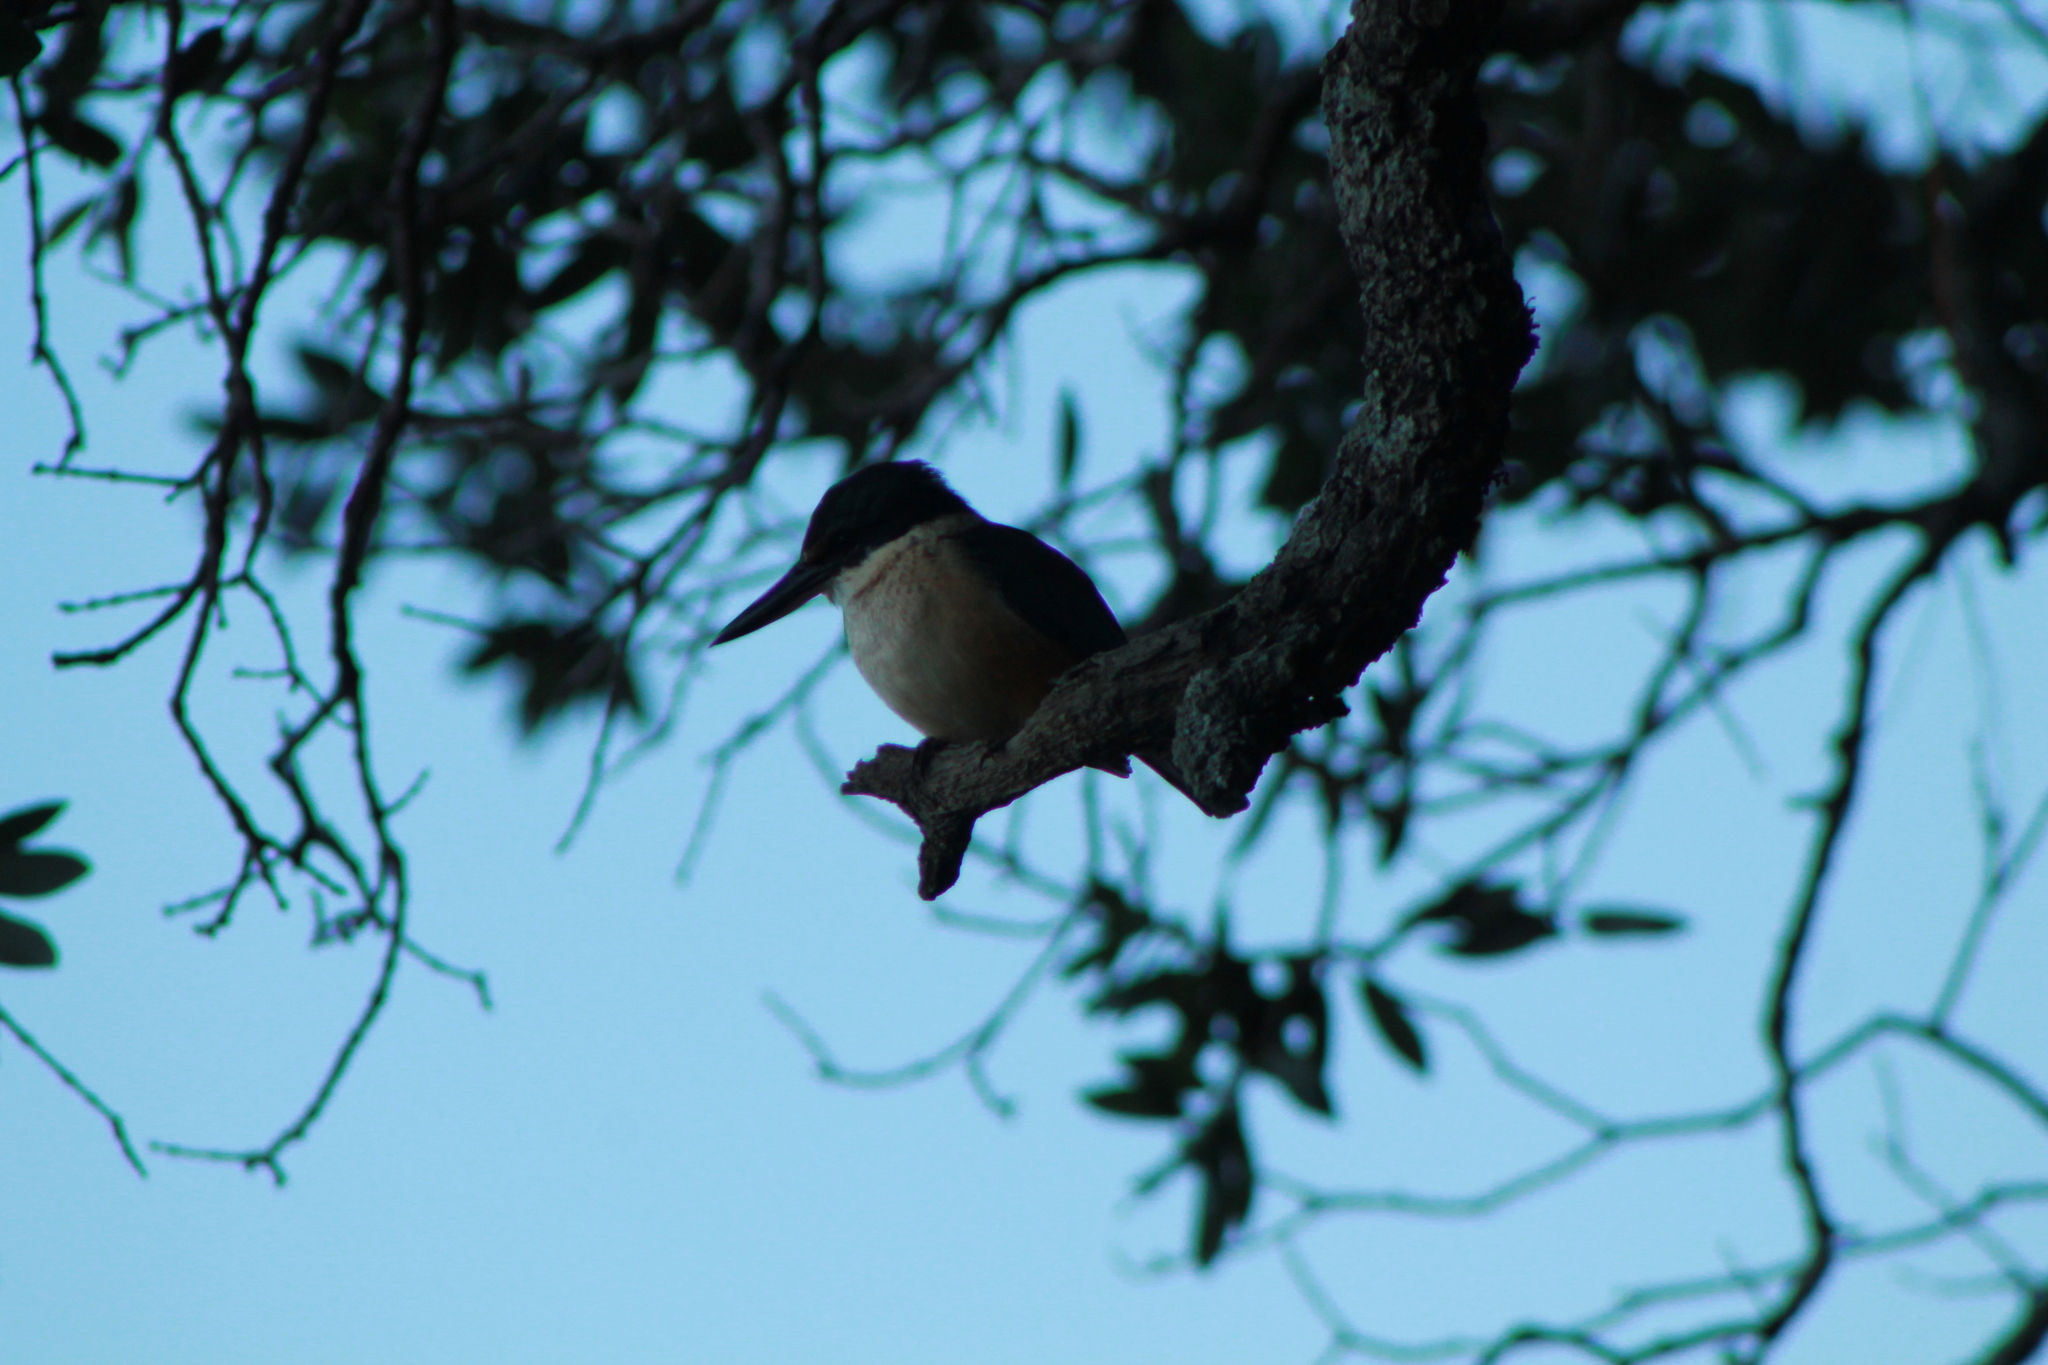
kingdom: Animalia
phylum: Chordata
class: Aves
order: Coraciiformes
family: Alcedinidae
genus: Todiramphus
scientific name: Todiramphus sanctus
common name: Sacred kingfisher
